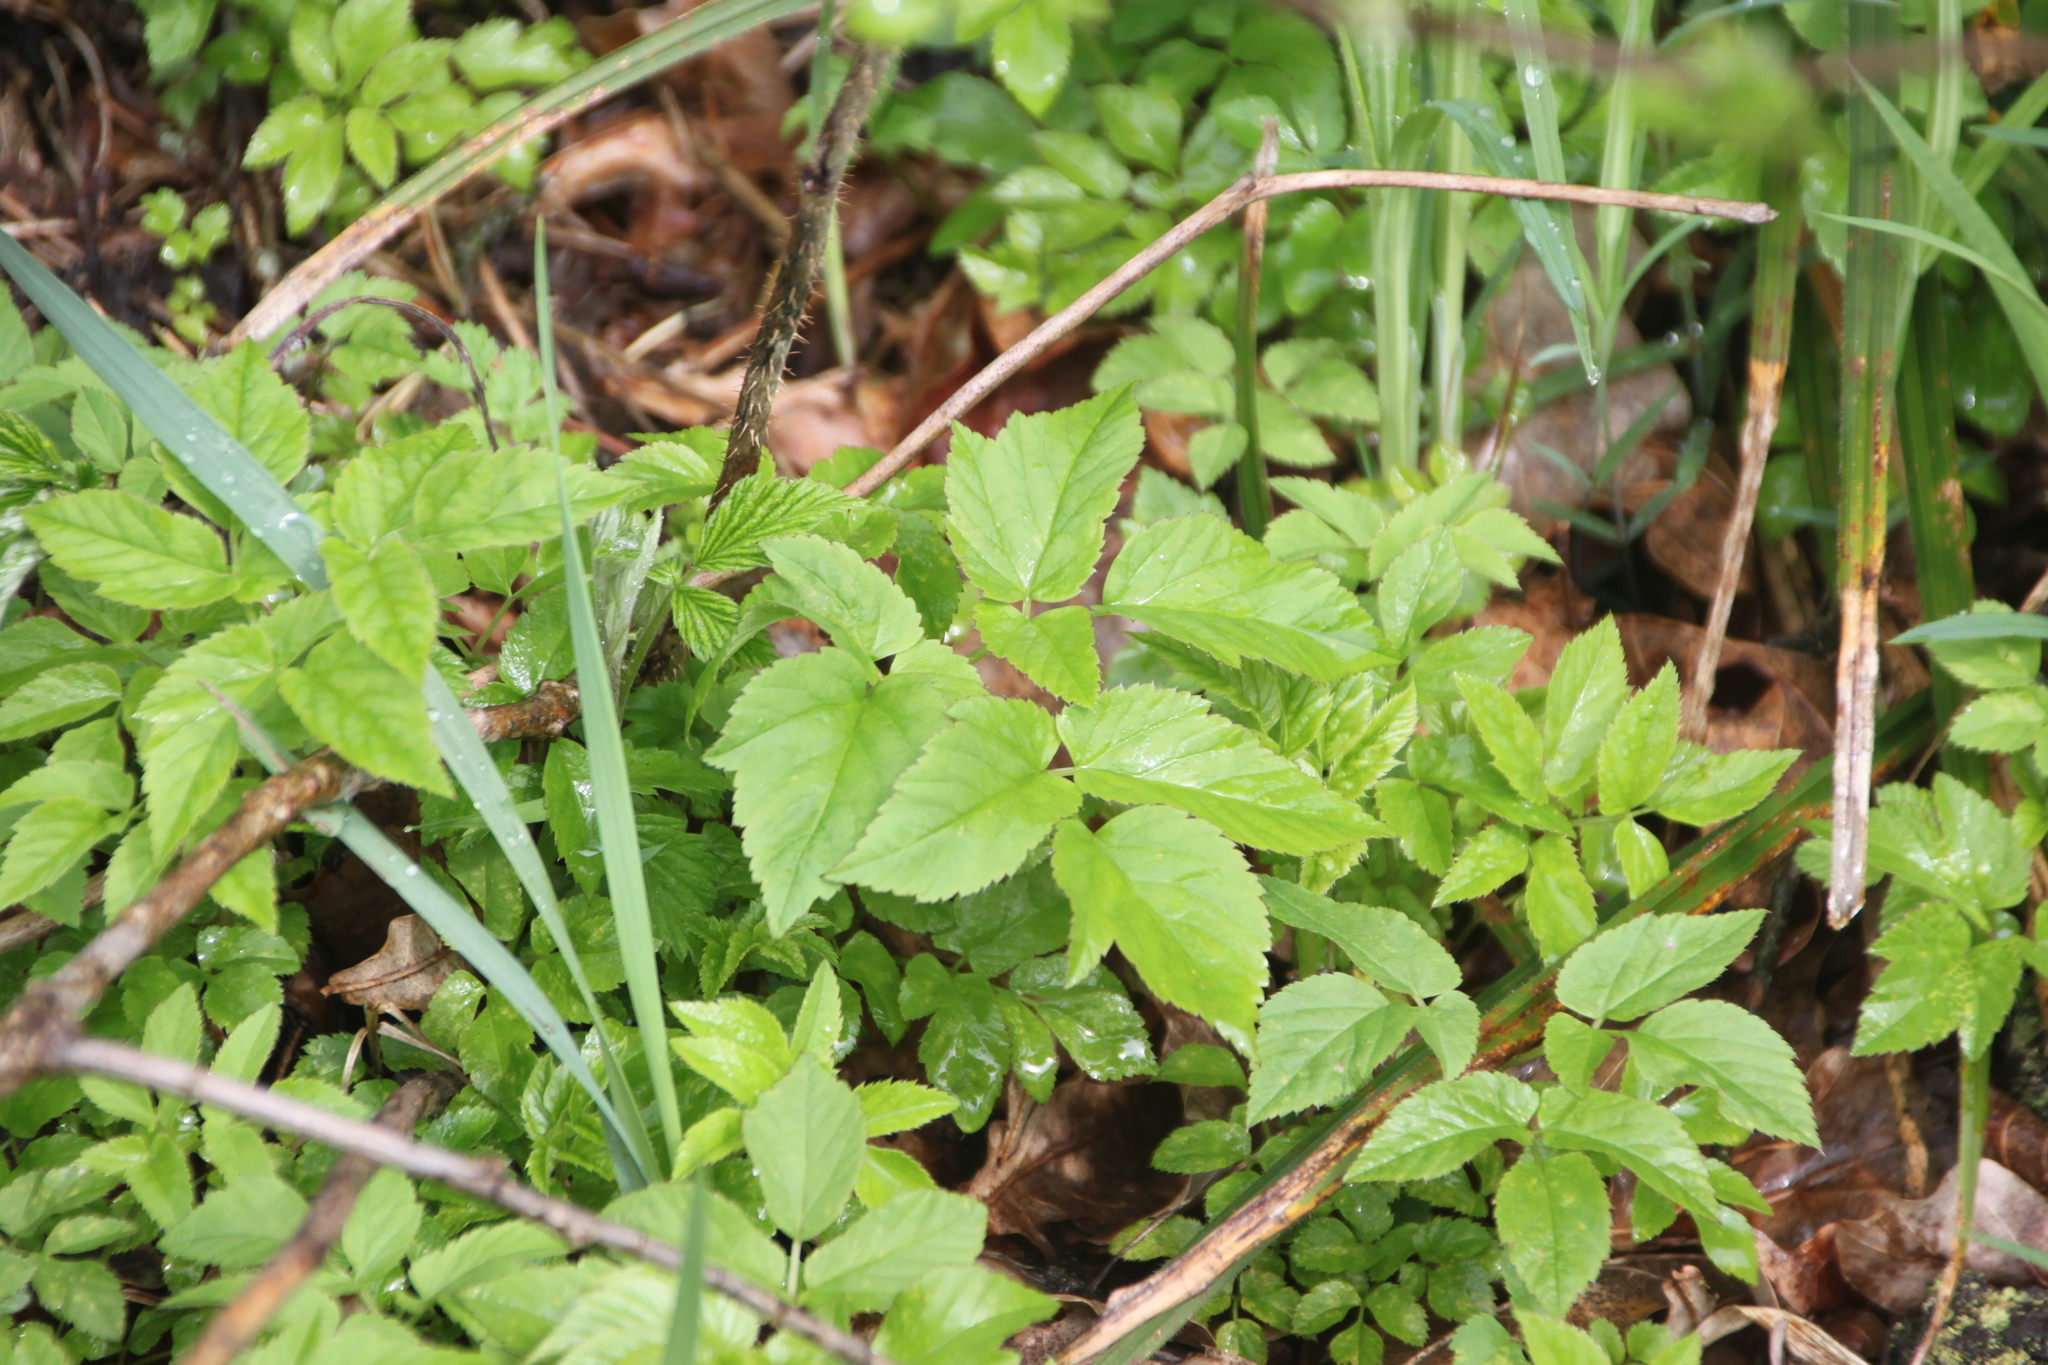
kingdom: Plantae
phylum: Tracheophyta
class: Magnoliopsida
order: Apiales
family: Apiaceae
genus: Aegopodium
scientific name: Aegopodium podagraria
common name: Ground-elder
